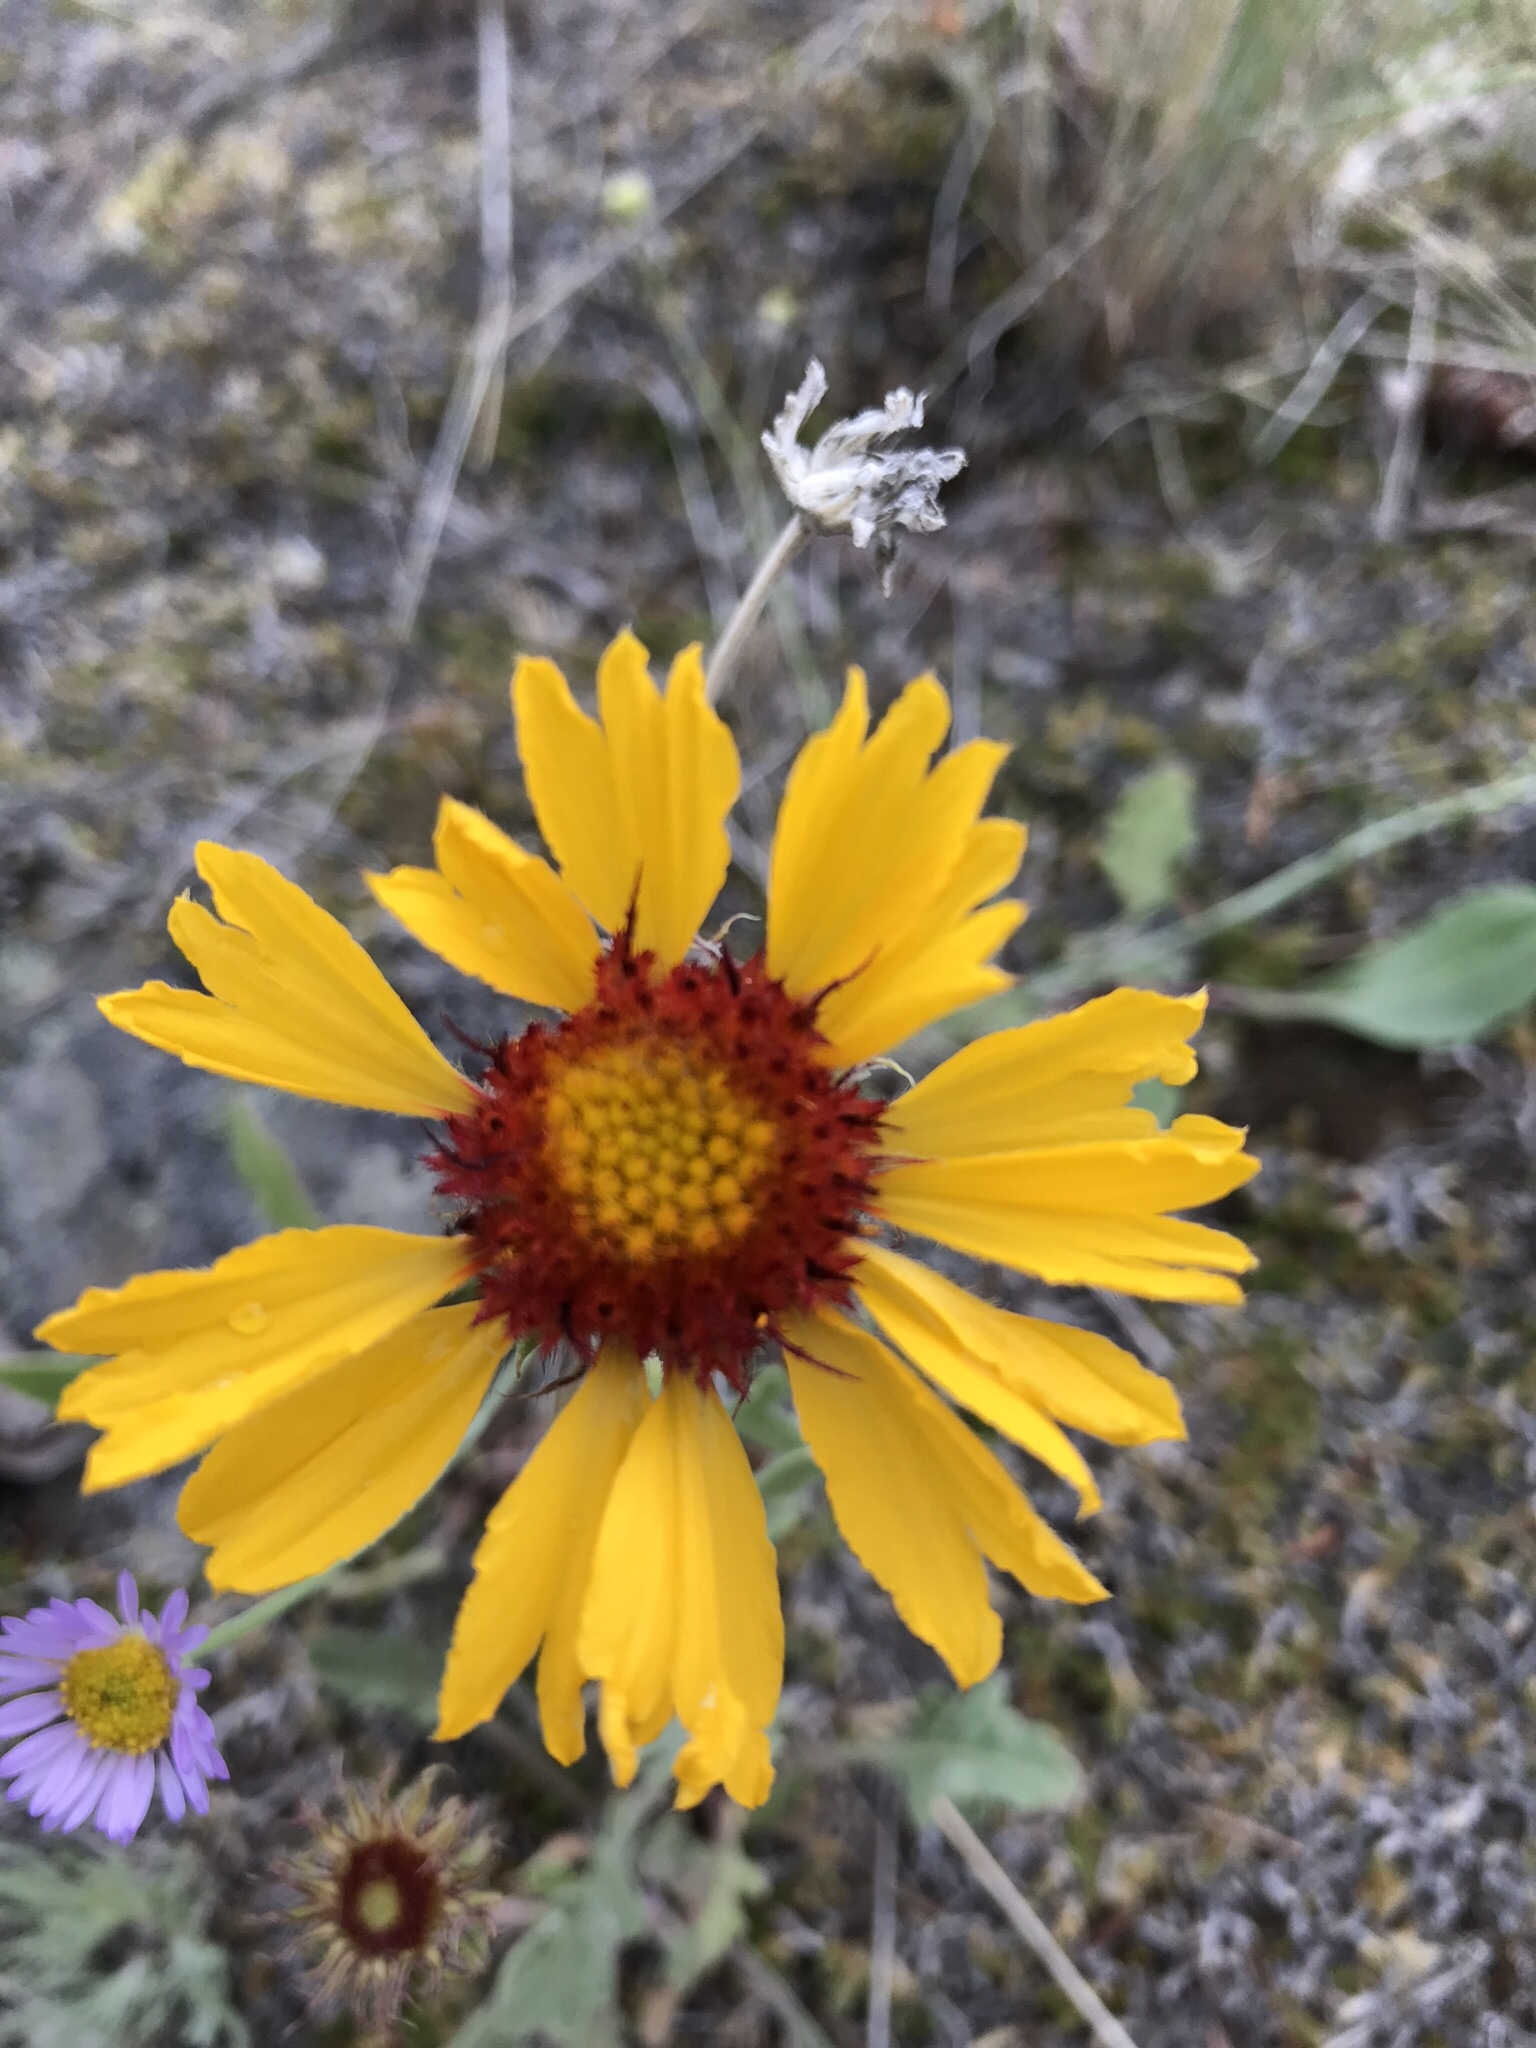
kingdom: Plantae
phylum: Tracheophyta
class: Magnoliopsida
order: Asterales
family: Asteraceae
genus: Gaillardia
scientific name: Gaillardia aristata
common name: Blanket-flower
